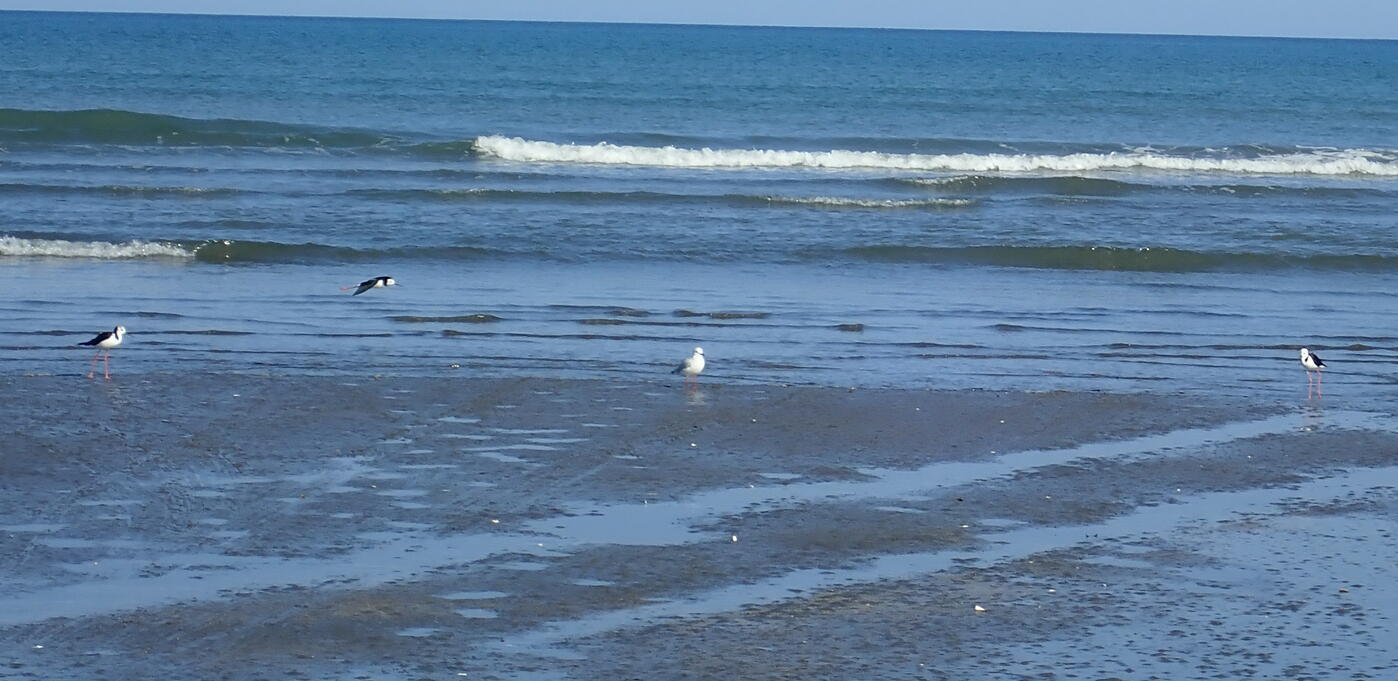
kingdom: Animalia
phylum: Chordata
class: Aves
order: Charadriiformes
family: Recurvirostridae
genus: Himantopus
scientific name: Himantopus leucocephalus
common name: White-headed stilt
